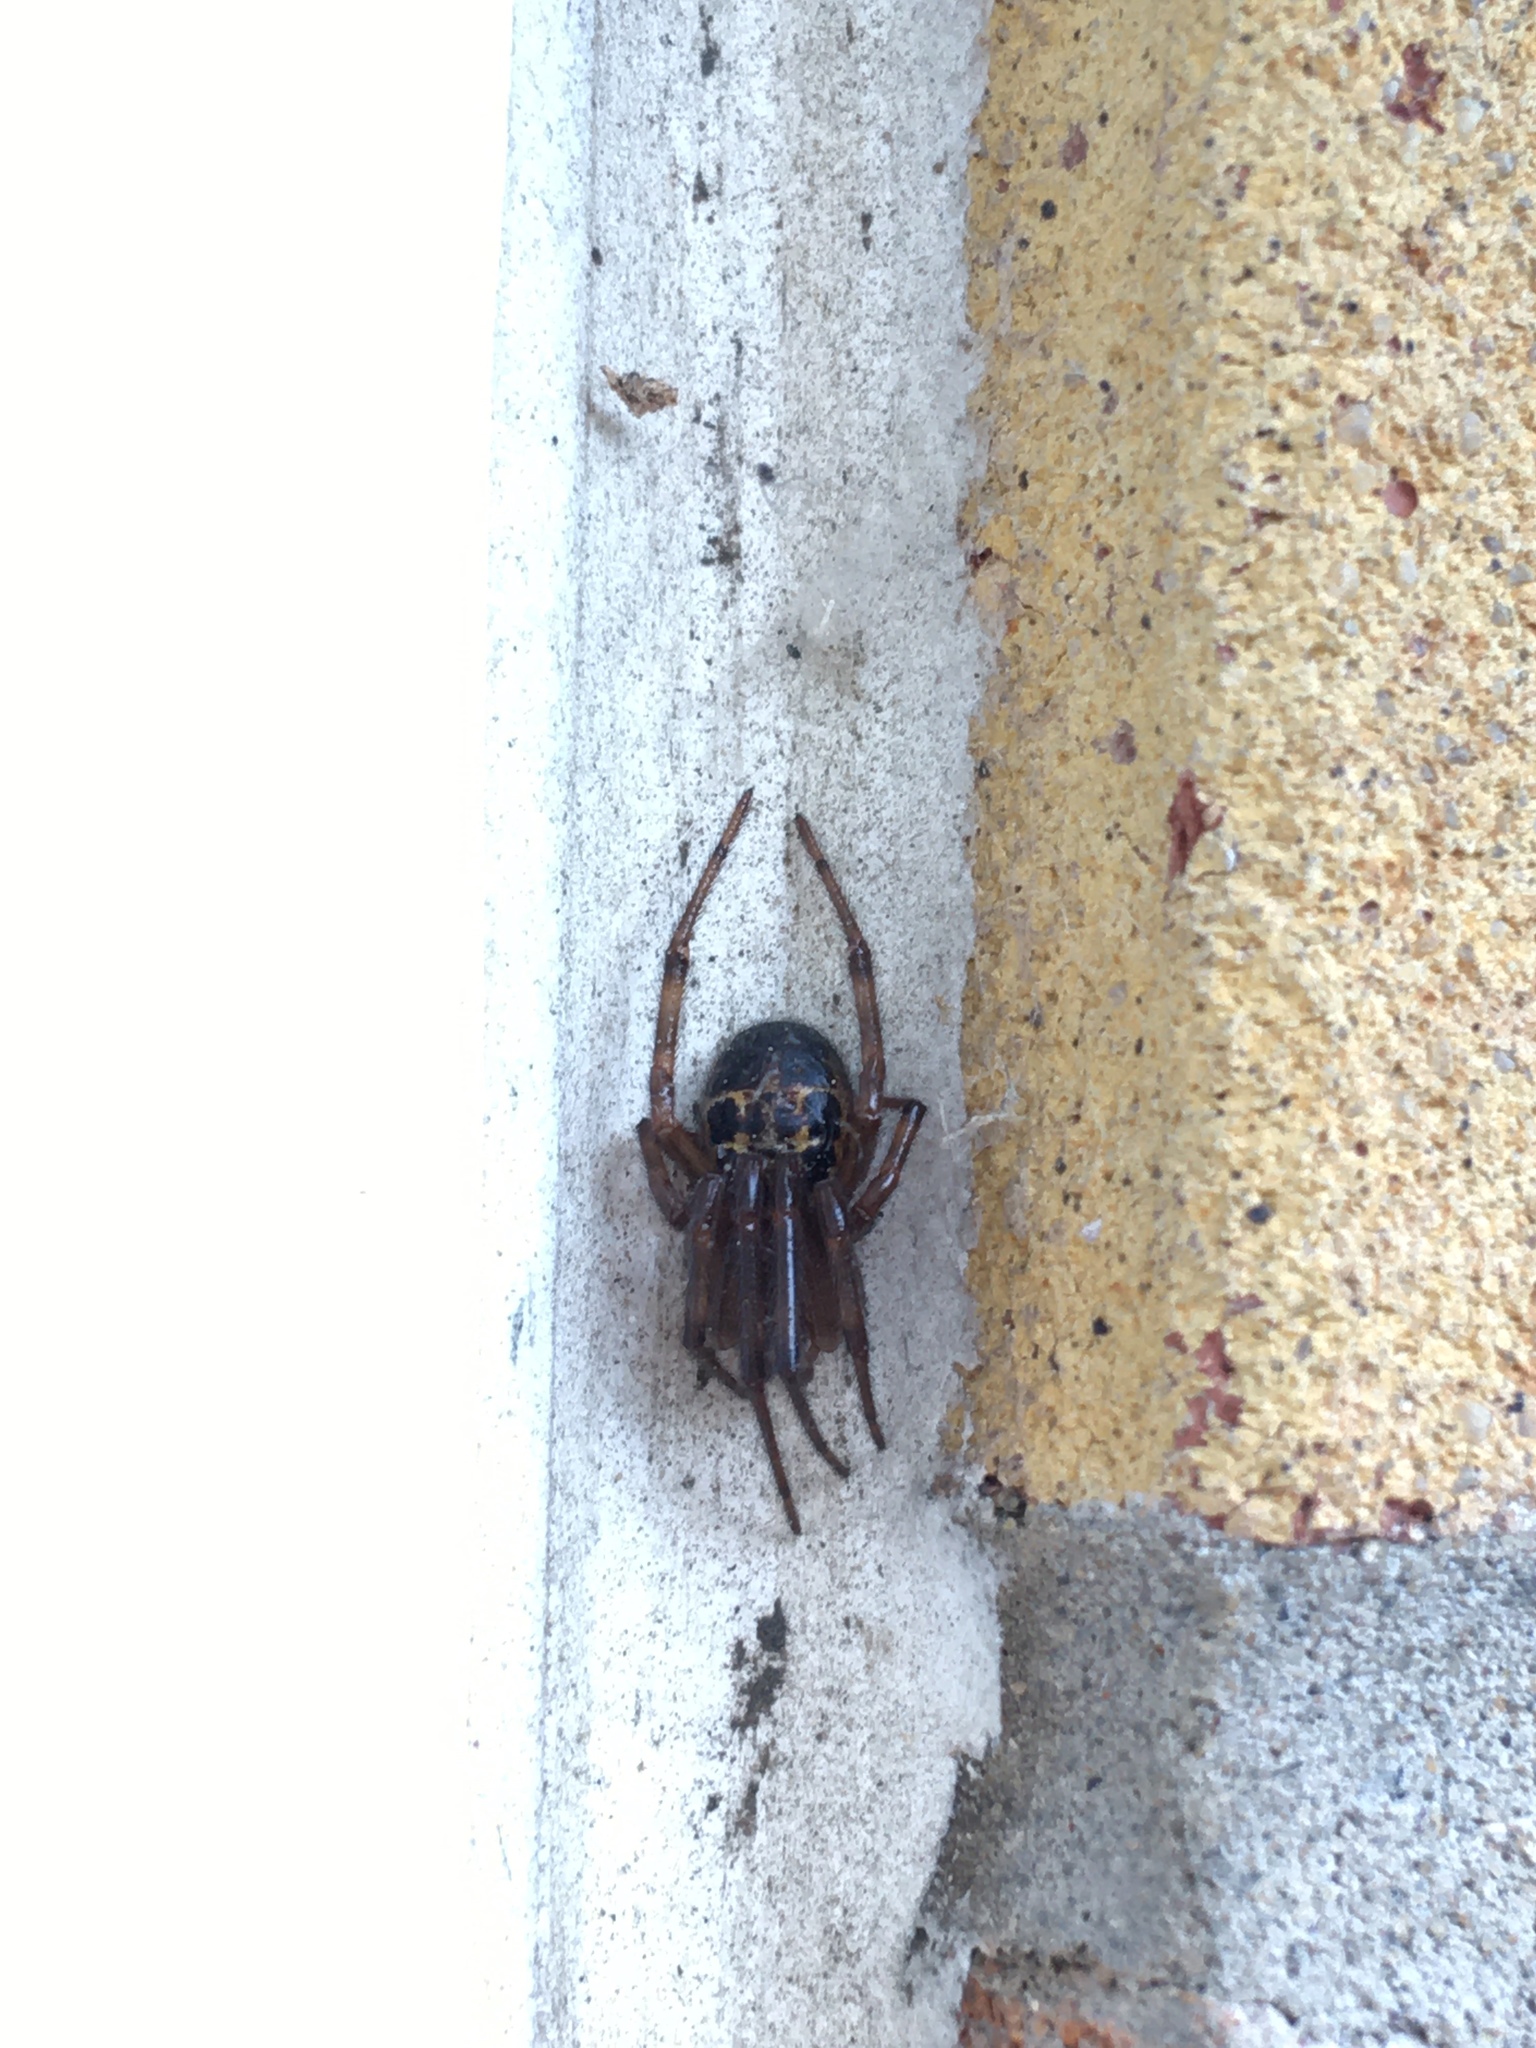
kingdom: Animalia
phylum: Arthropoda
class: Arachnida
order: Araneae
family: Theridiidae
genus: Steatoda
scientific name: Steatoda nobilis
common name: Cobweb weaver
